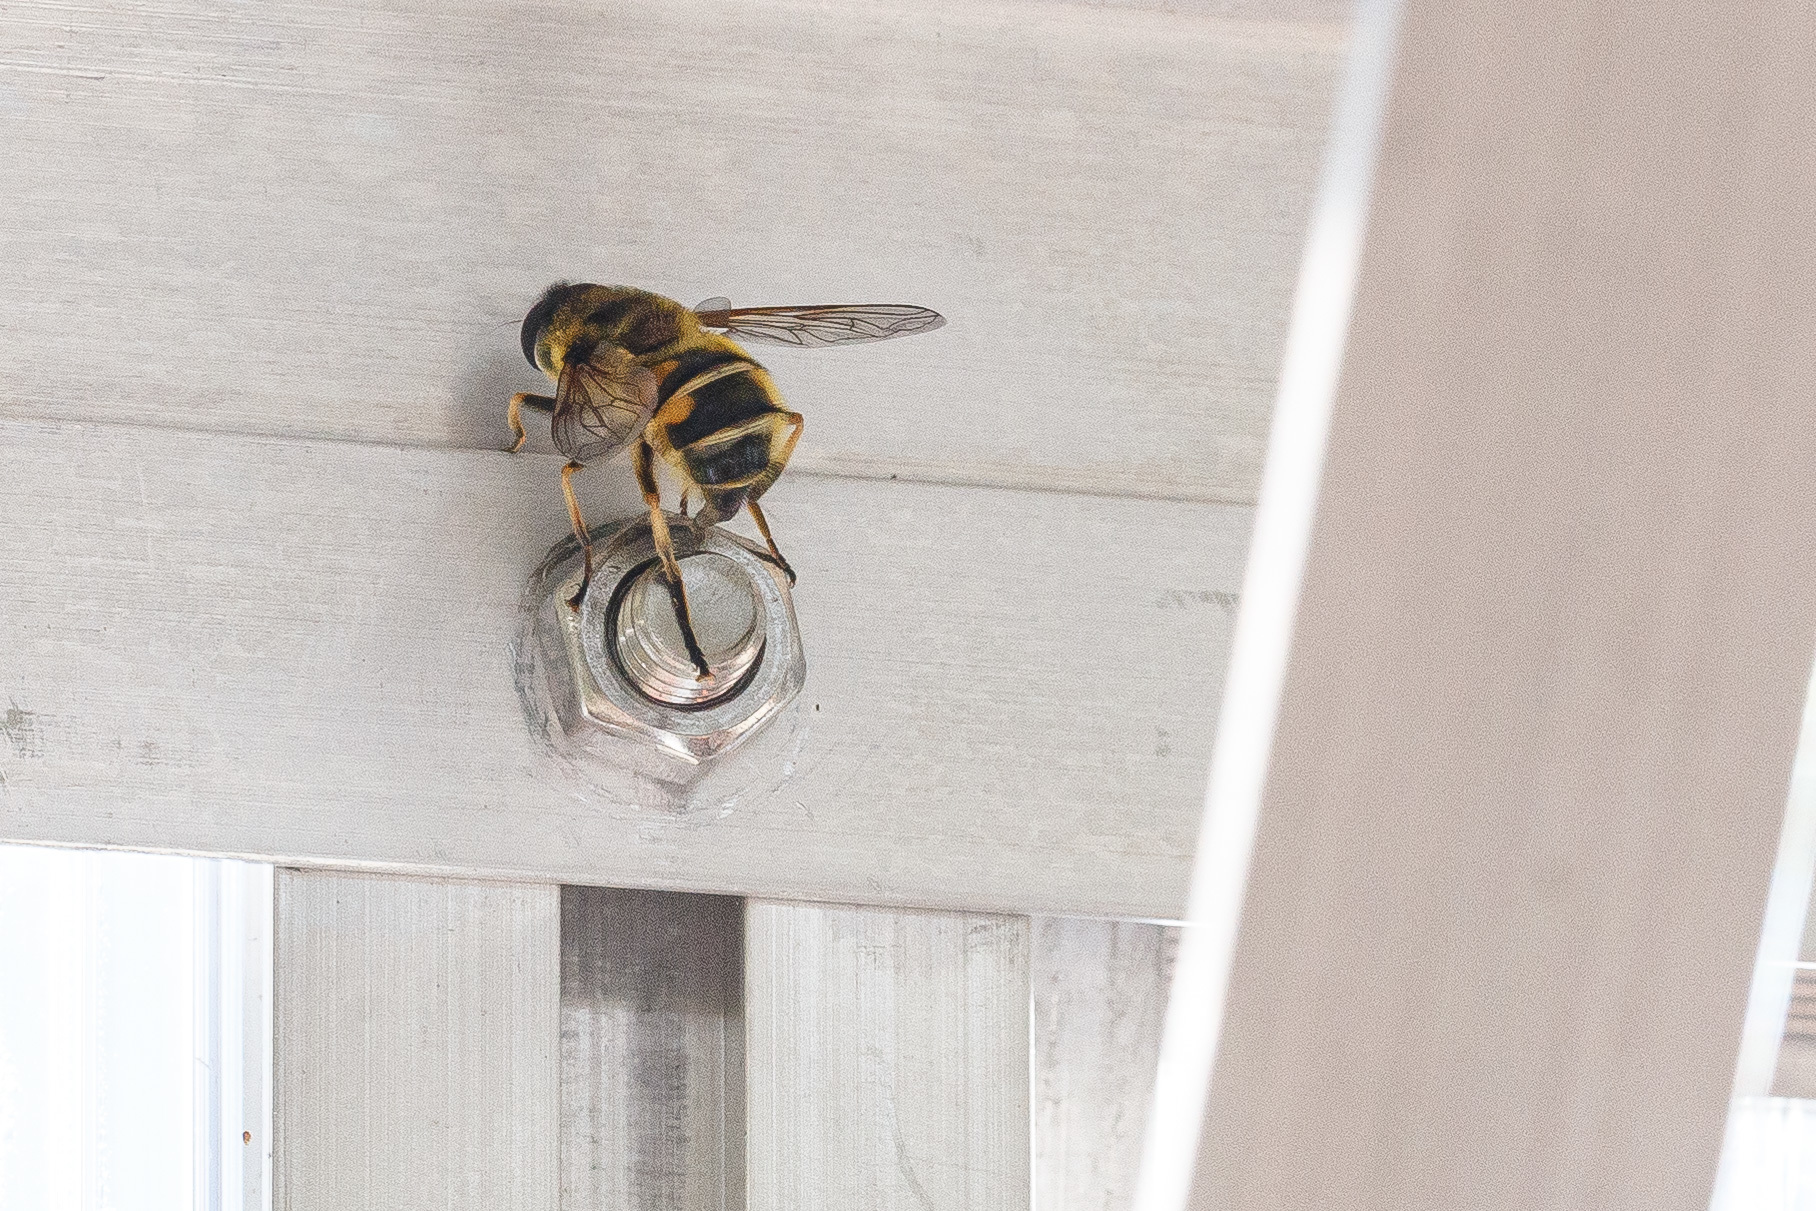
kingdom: Animalia
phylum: Arthropoda
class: Insecta
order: Diptera
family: Syrphidae
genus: Myathropa
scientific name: Myathropa florea
